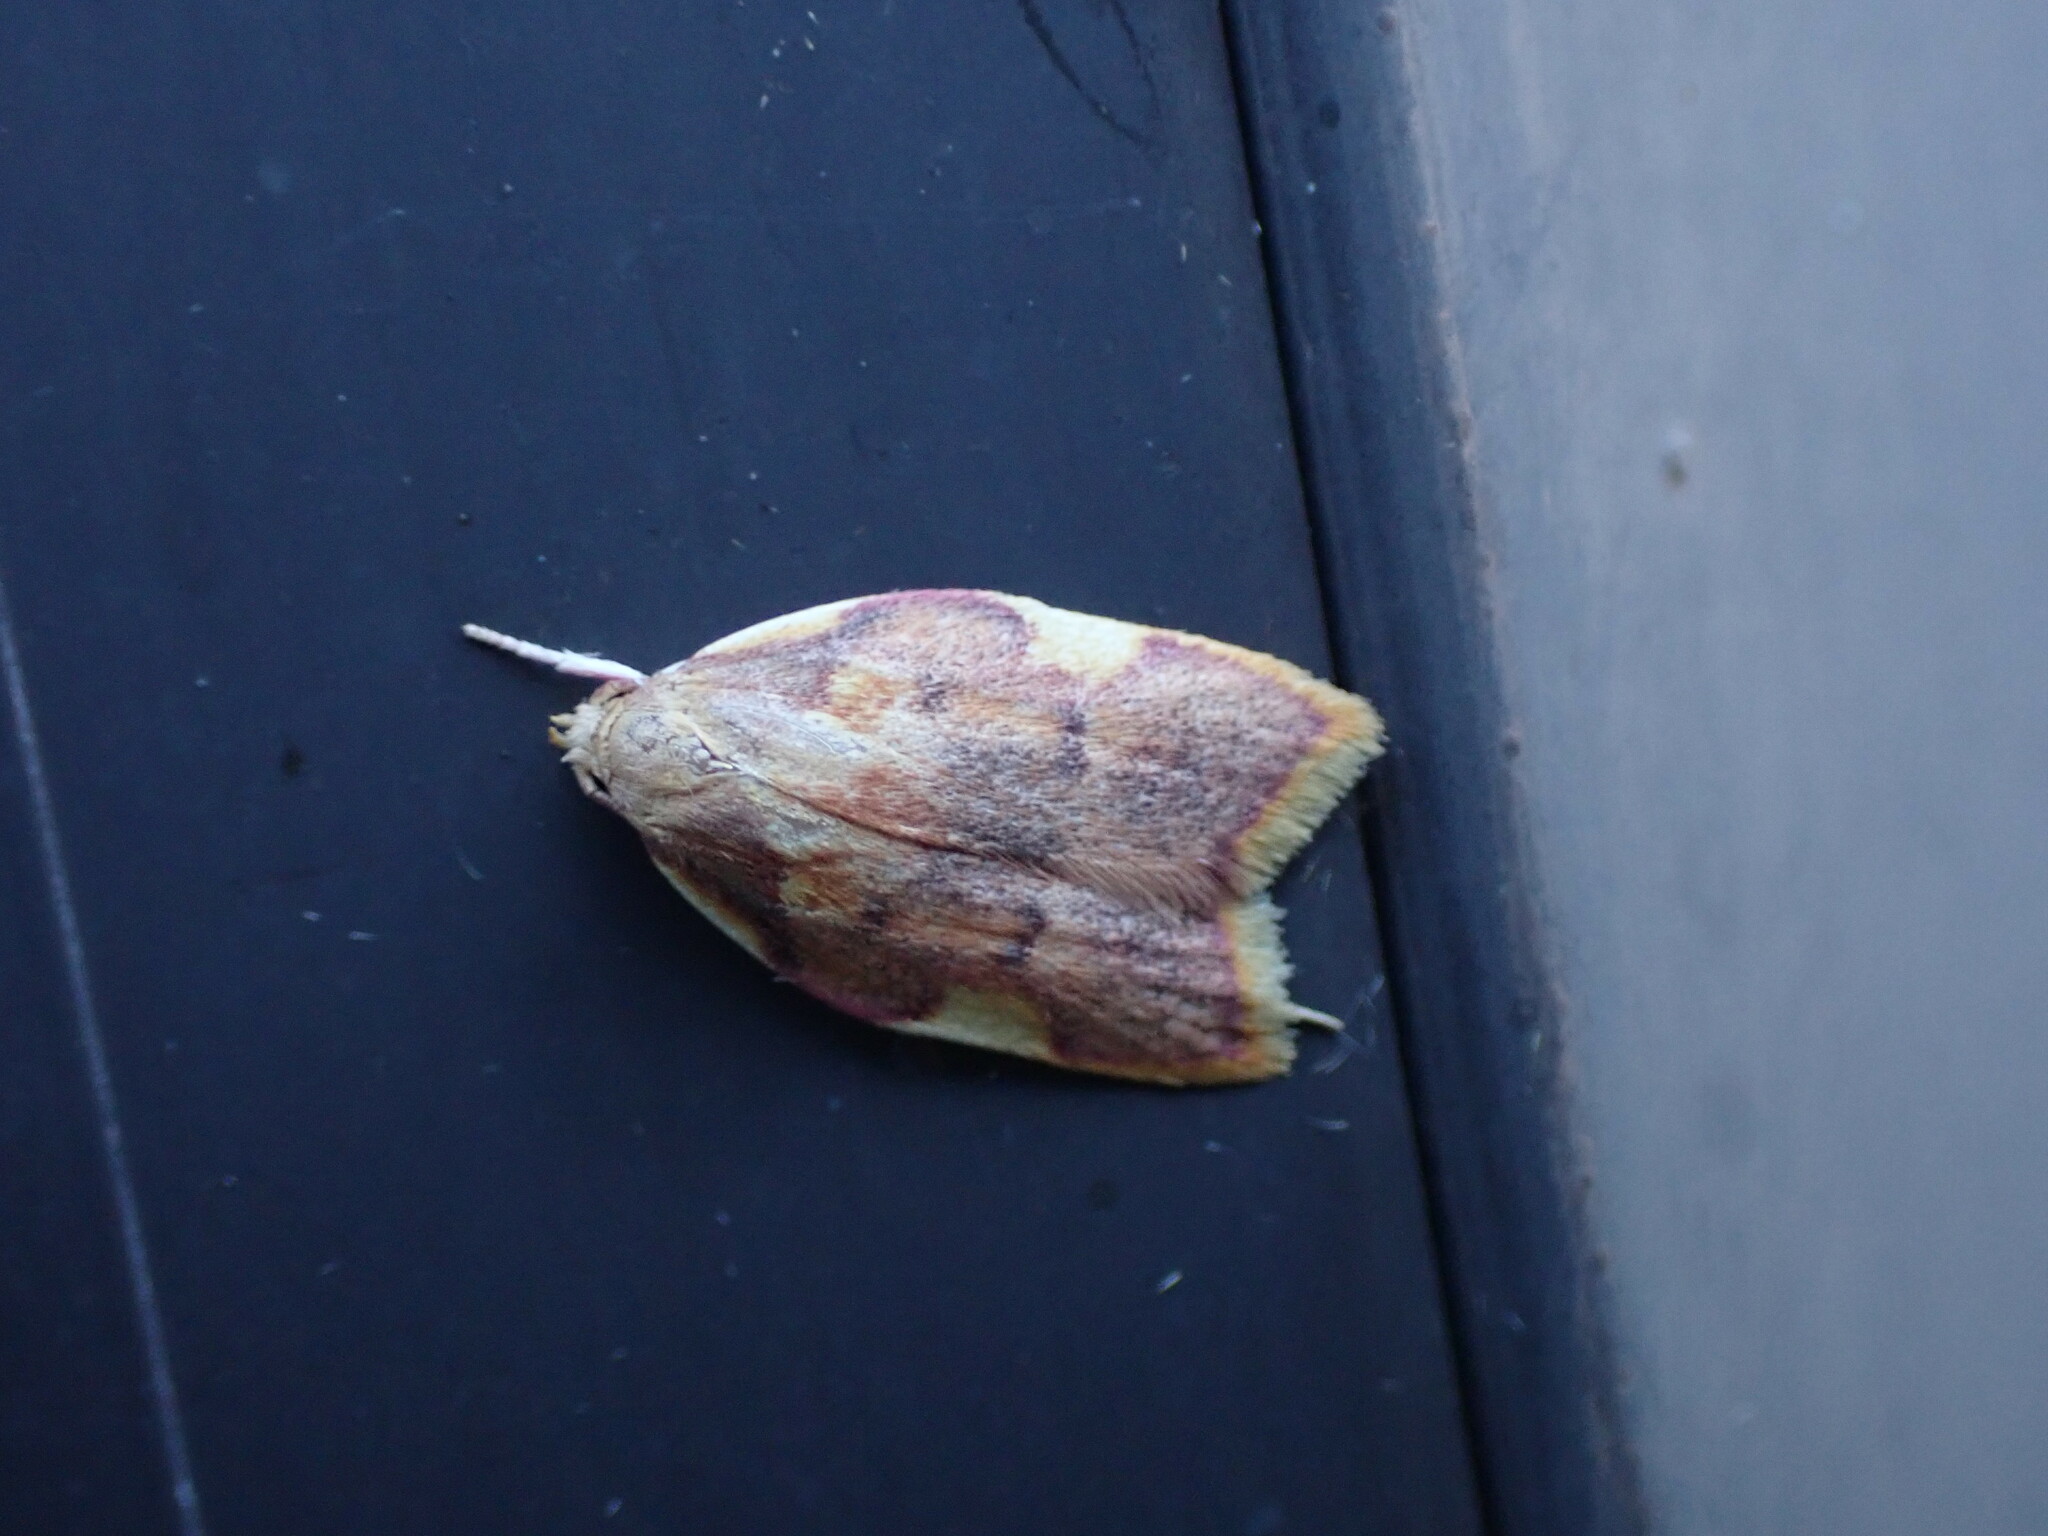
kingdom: Animalia
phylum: Arthropoda
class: Insecta
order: Lepidoptera
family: Peleopodidae
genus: Carcina
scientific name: Carcina quercana
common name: Moth
